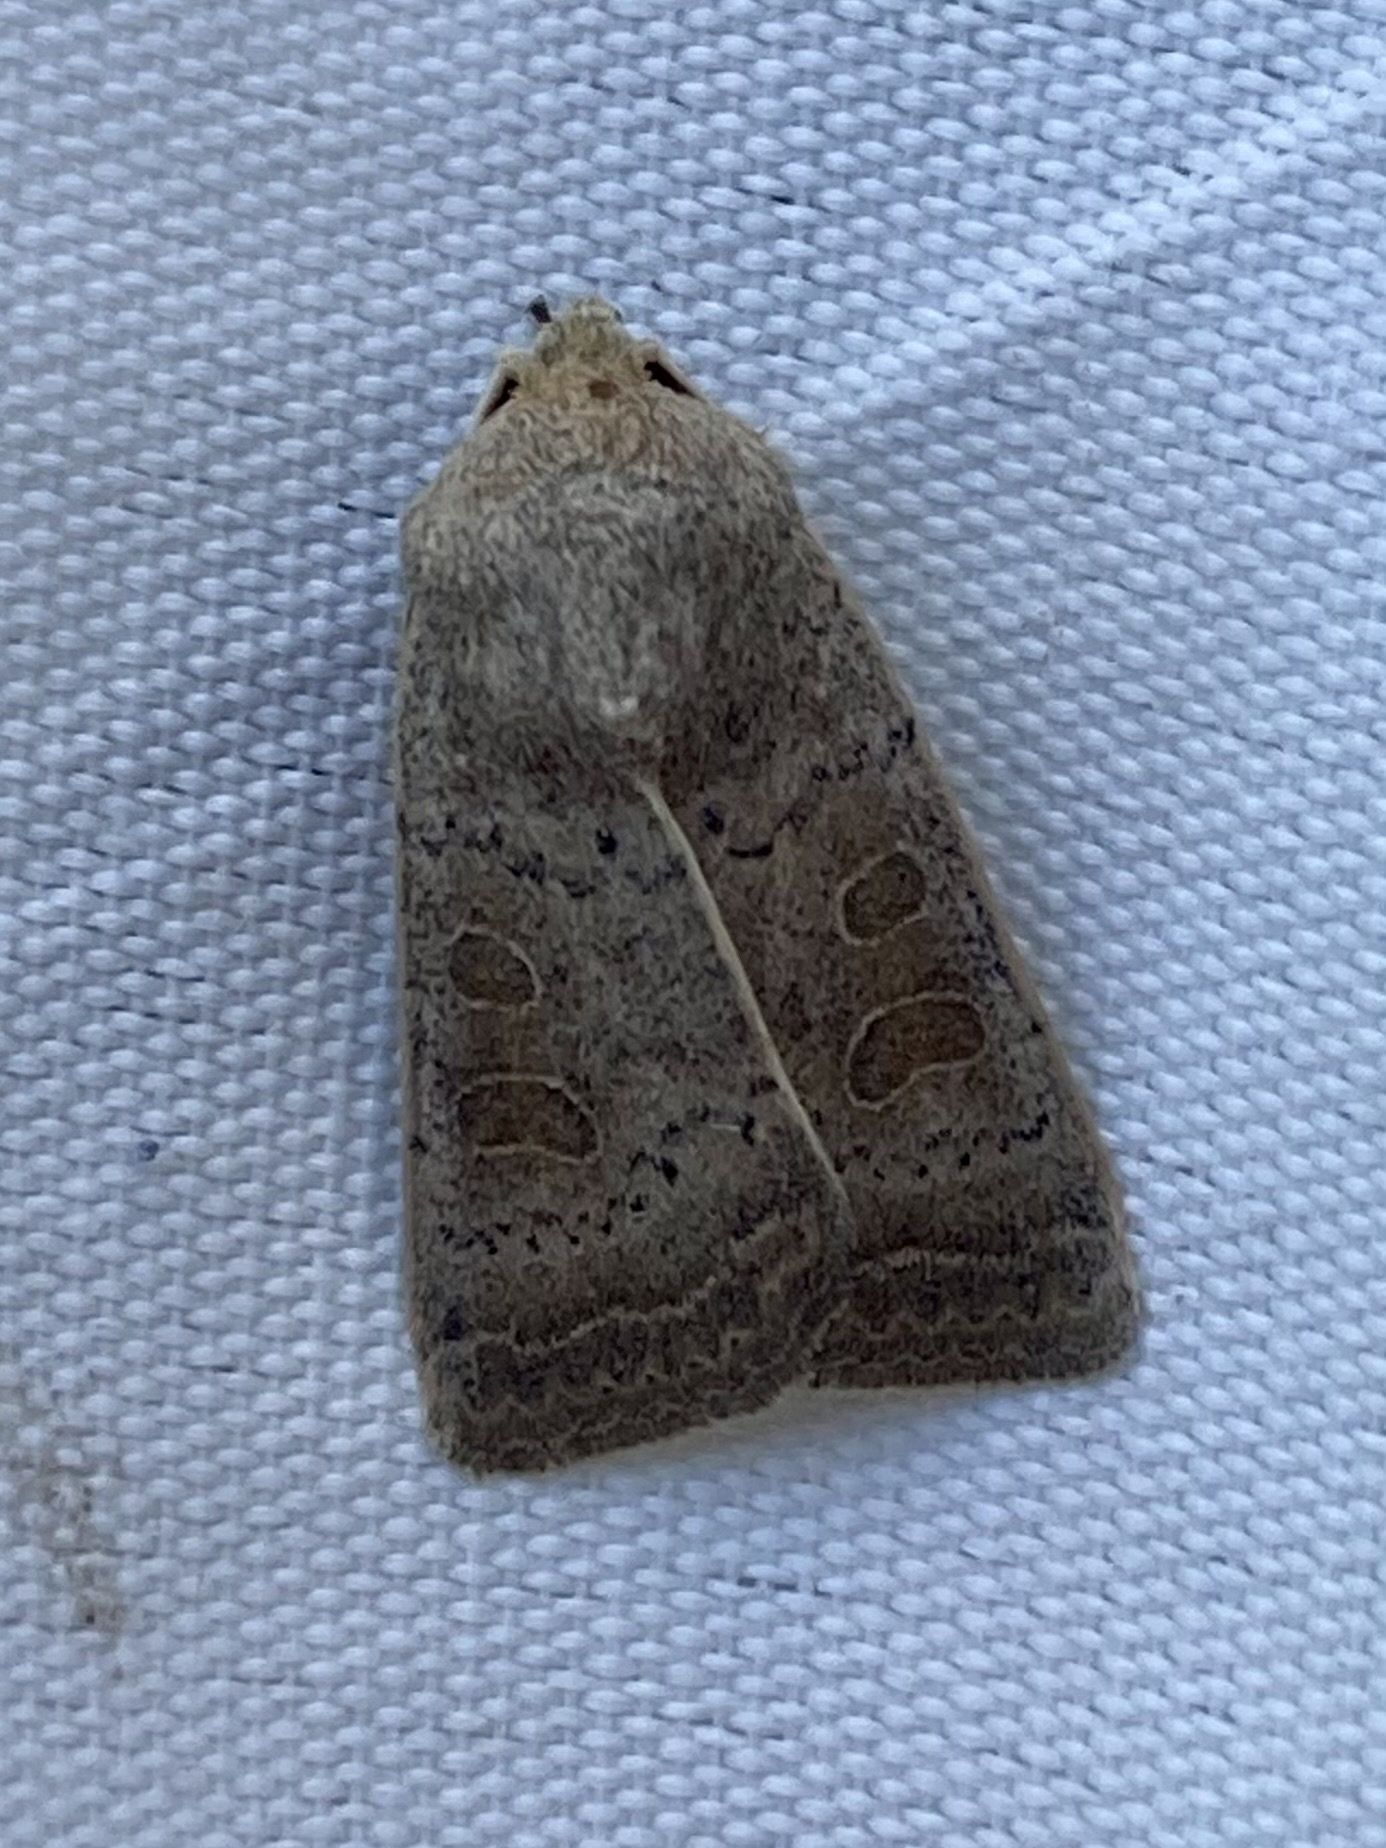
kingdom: Animalia
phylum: Arthropoda
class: Insecta
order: Lepidoptera
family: Noctuidae
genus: Hoplodrina
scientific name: Hoplodrina ambigua
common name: Vine's rustic
